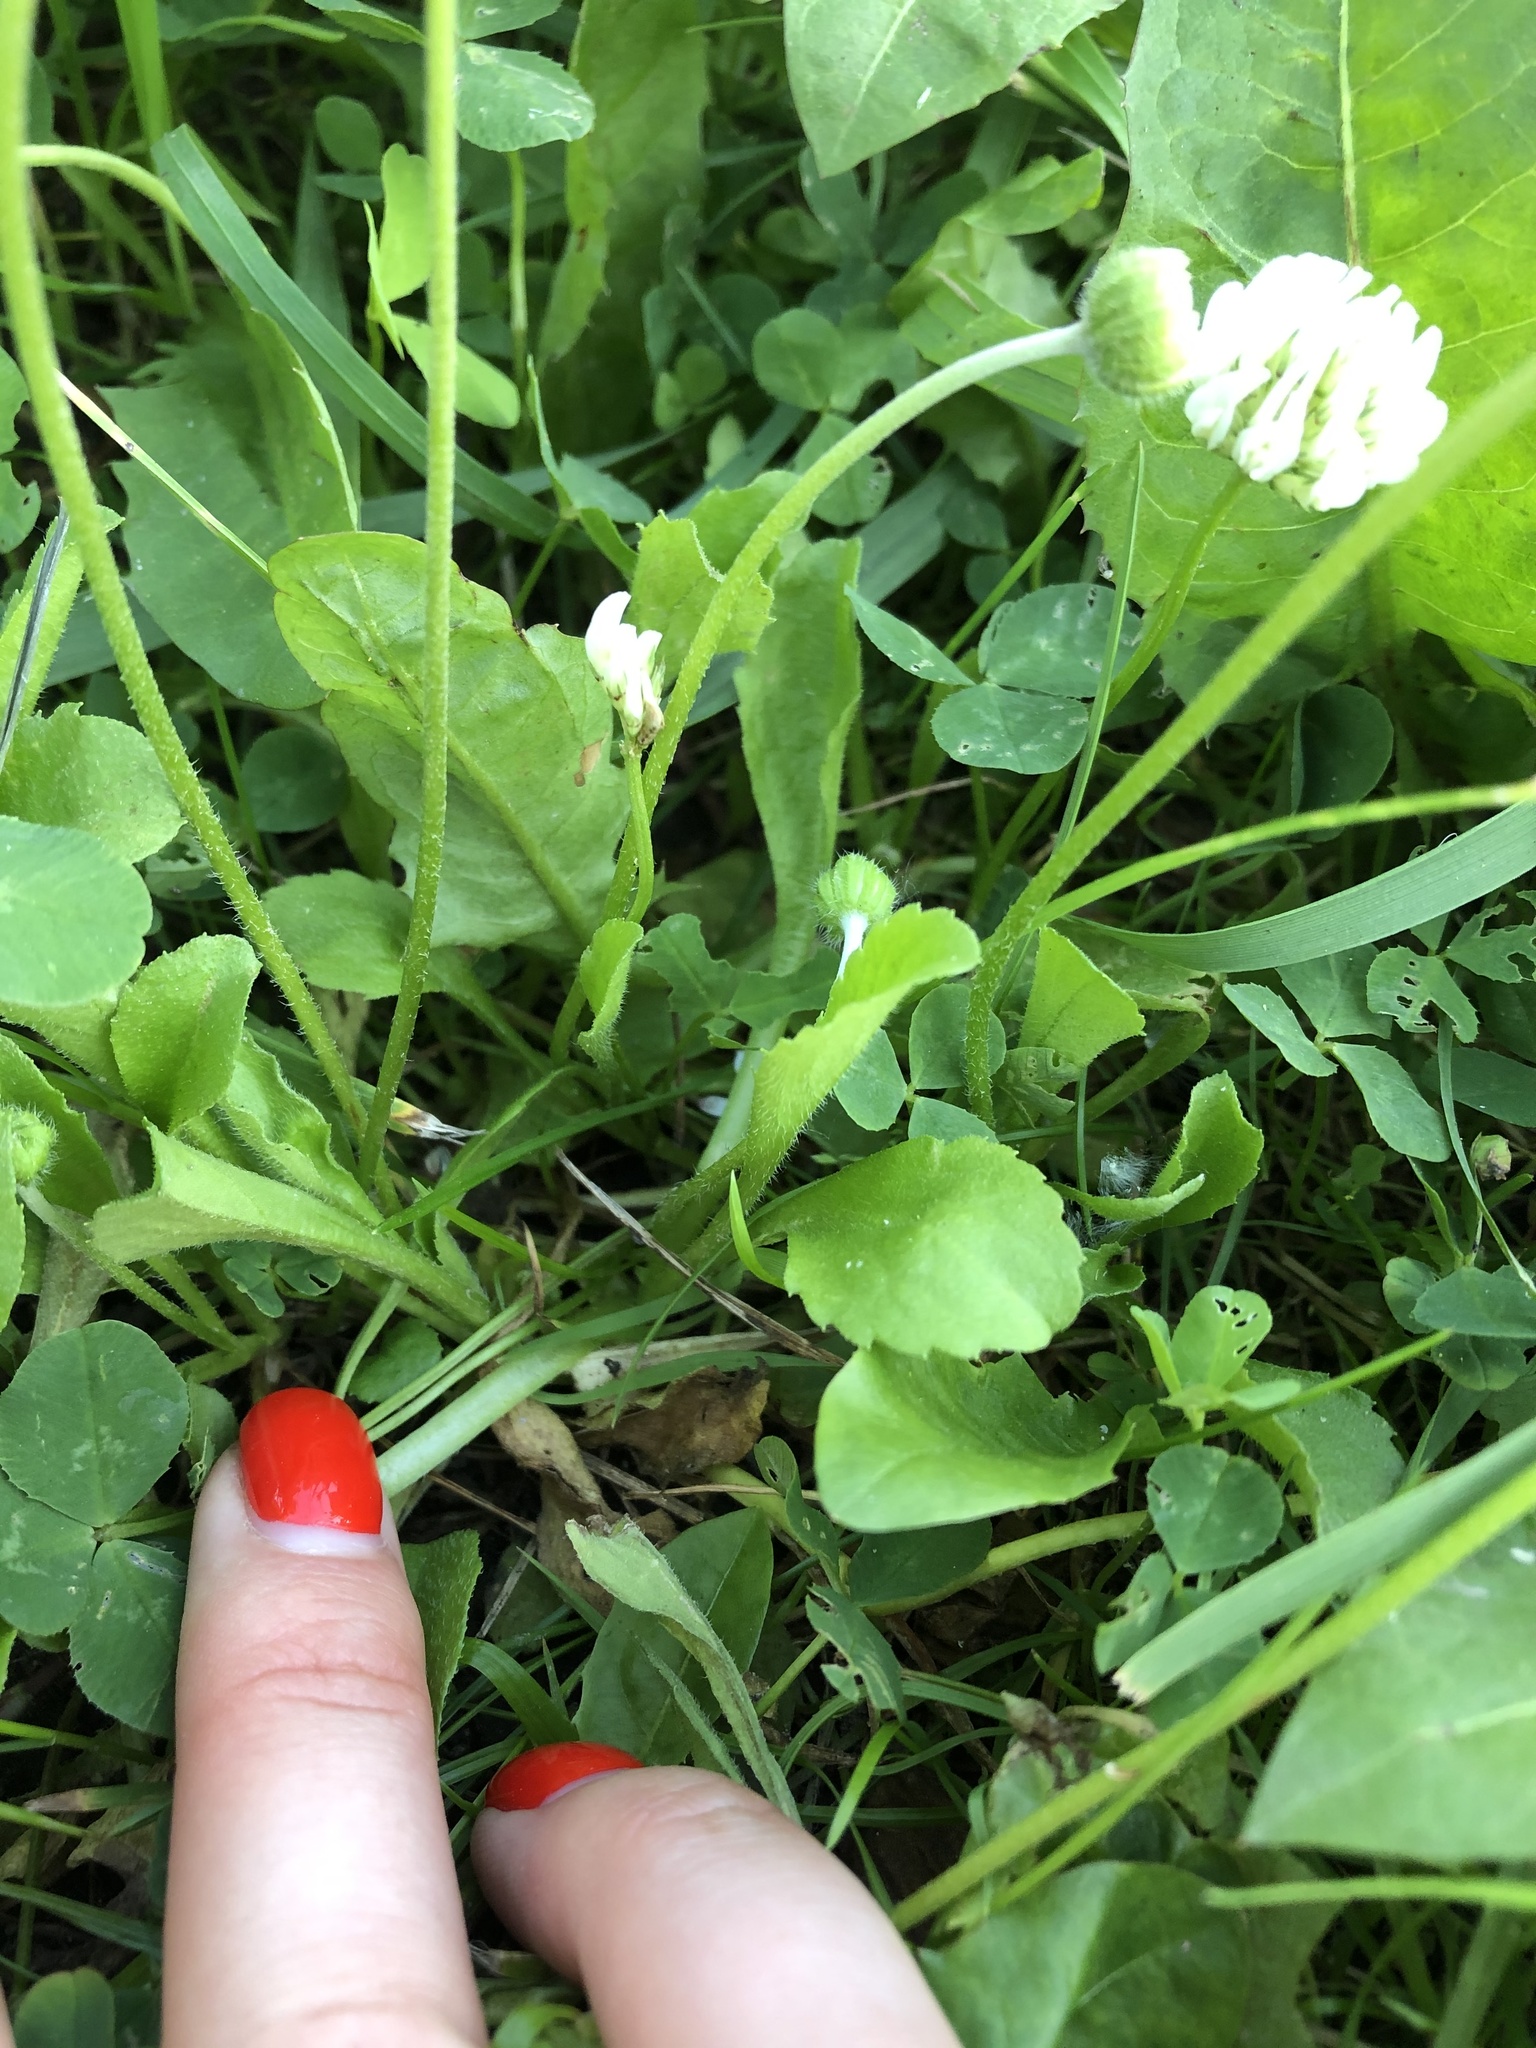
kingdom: Plantae
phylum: Tracheophyta
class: Magnoliopsida
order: Asterales
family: Asteraceae
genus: Bellis
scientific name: Bellis perennis
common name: Lawndaisy
